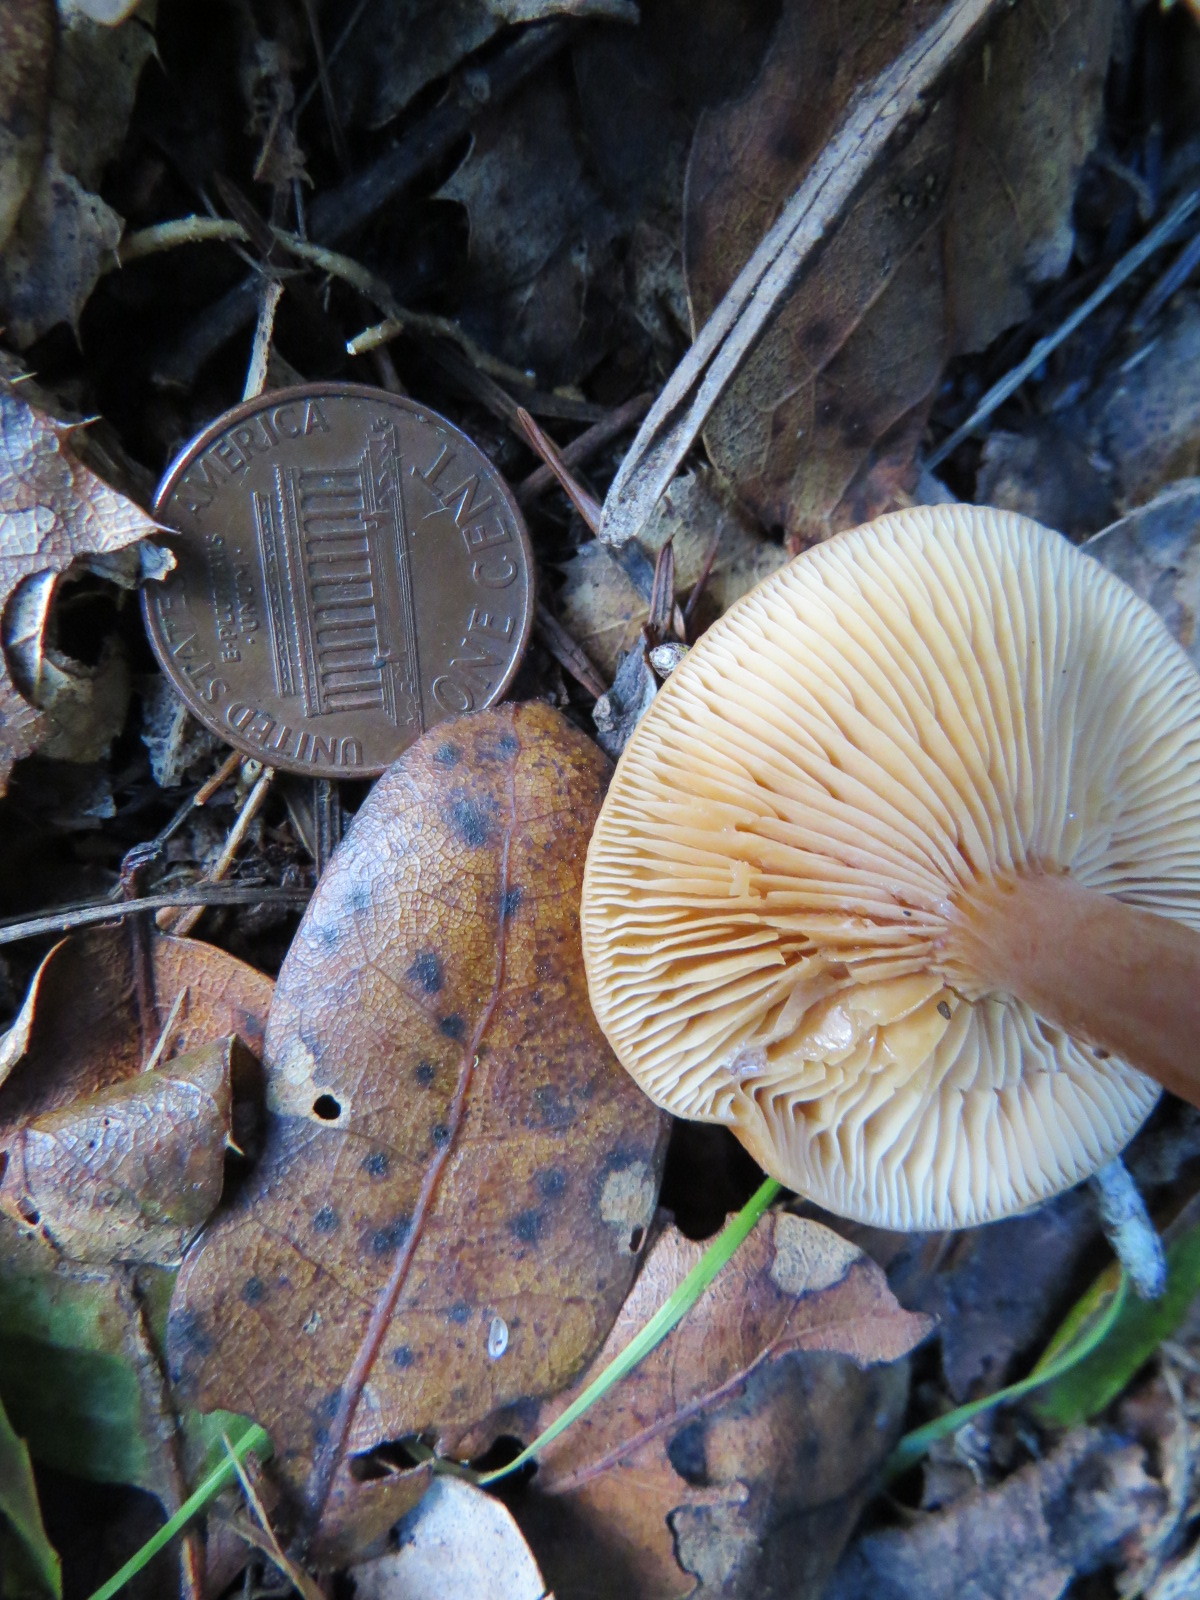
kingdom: Fungi
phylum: Basidiomycota
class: Agaricomycetes
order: Russulales
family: Russulaceae
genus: Lactarius
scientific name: Lactarius rubidus
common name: Candy cap
